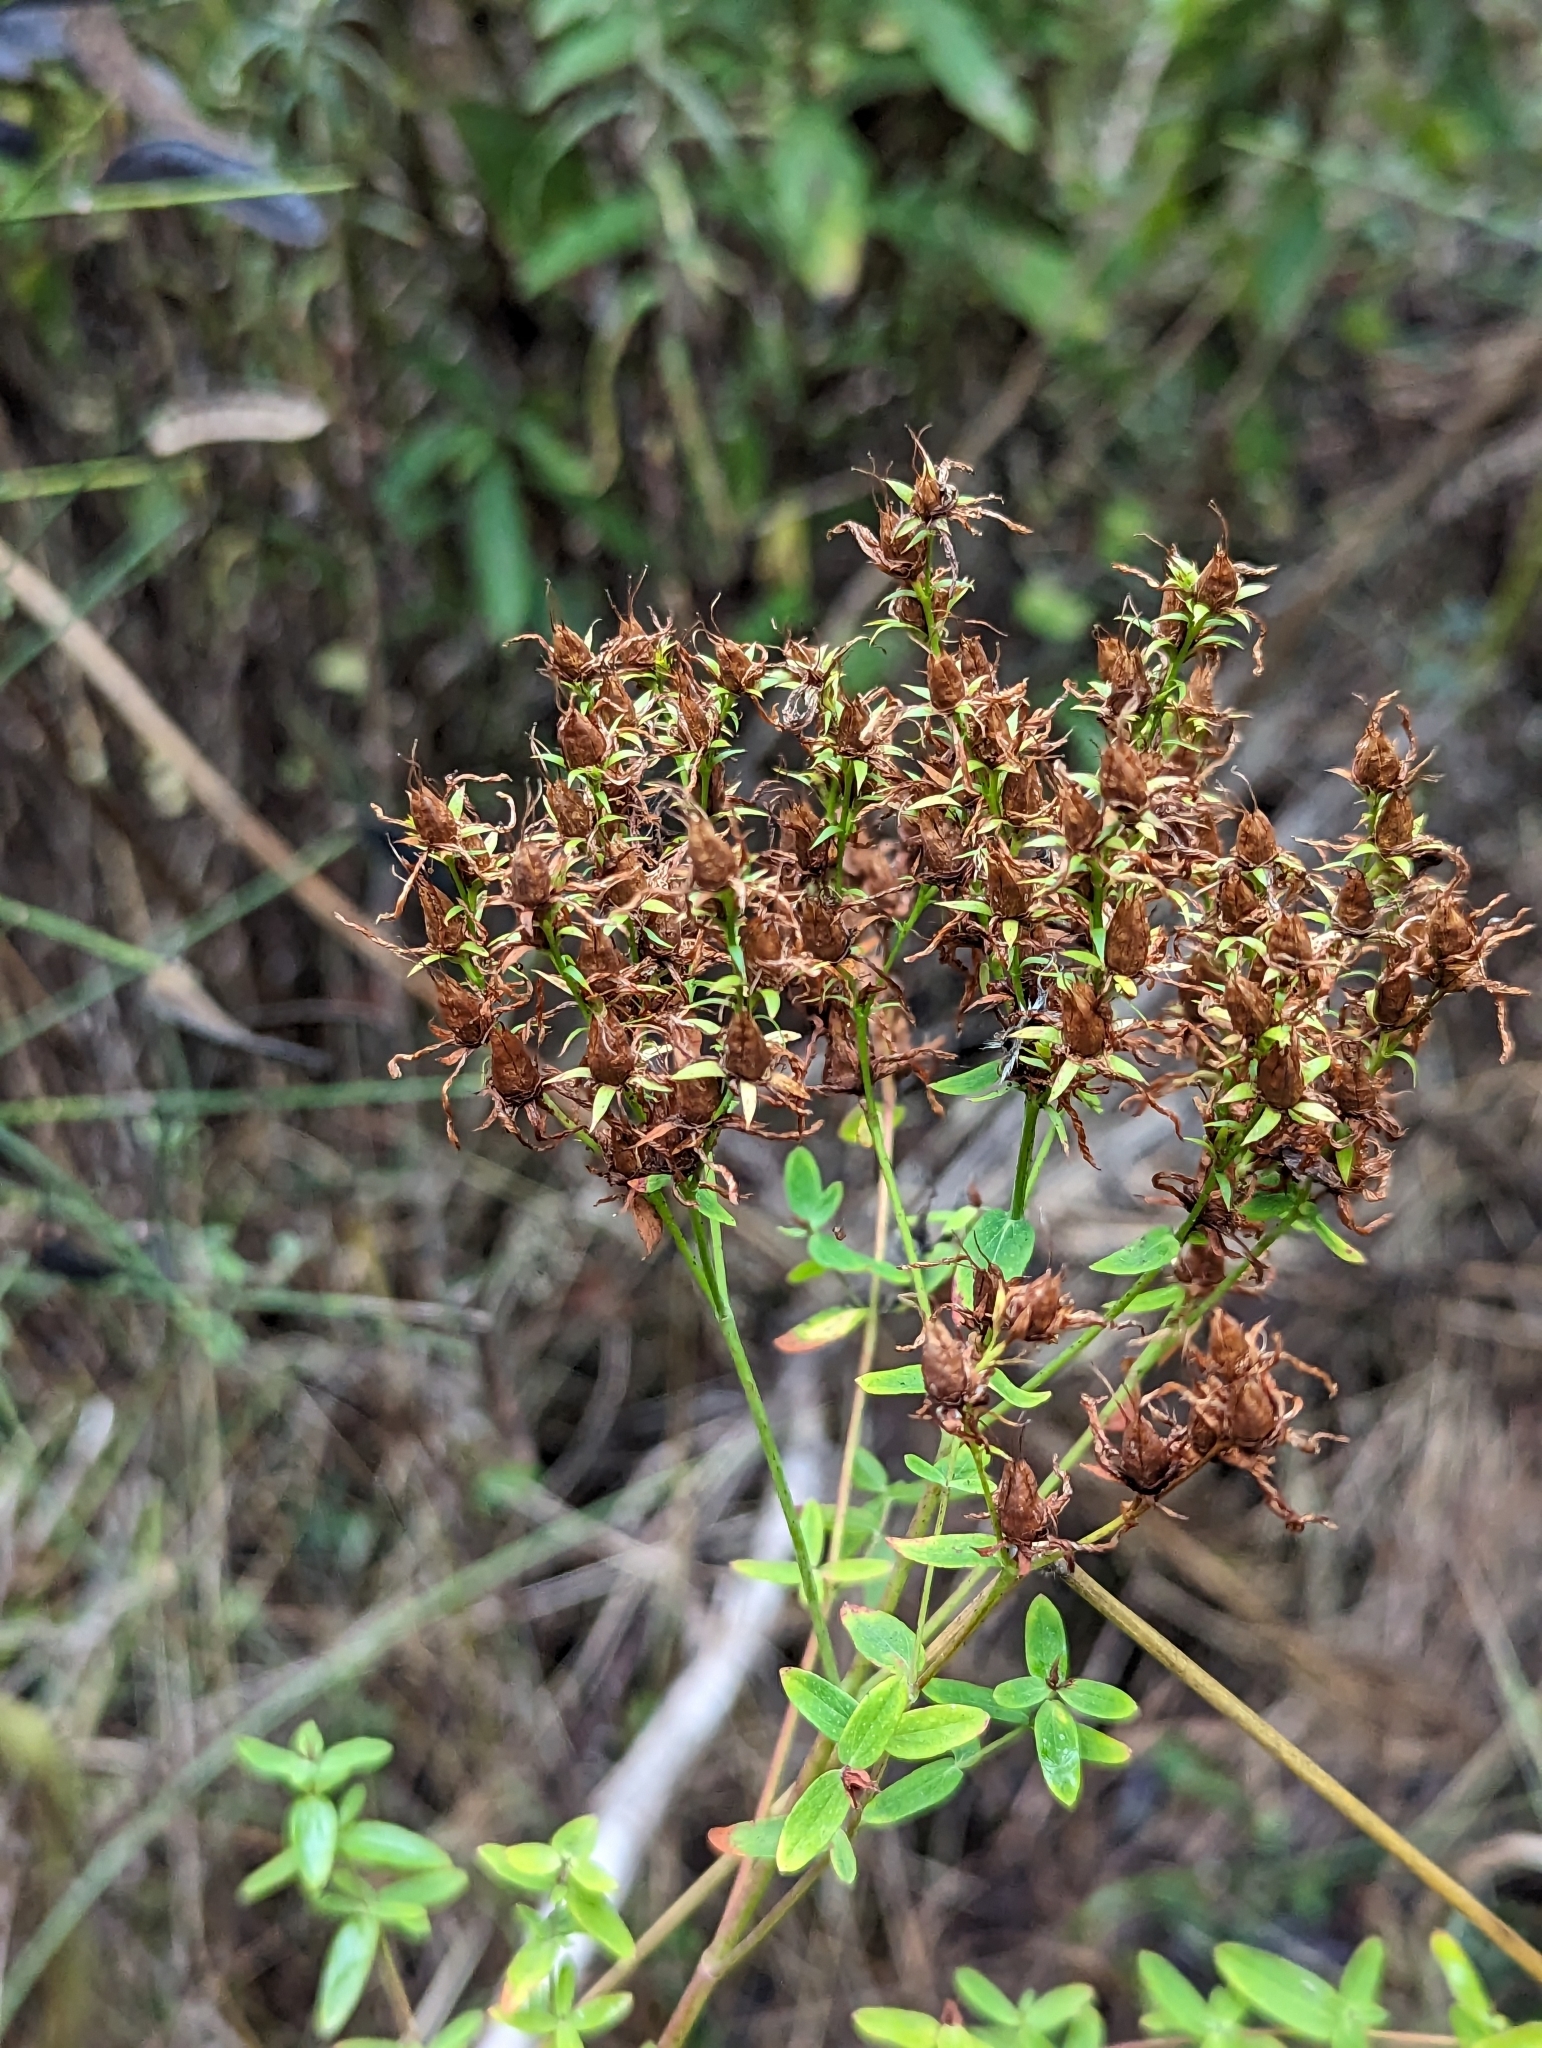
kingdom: Plantae
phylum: Tracheophyta
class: Magnoliopsida
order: Malpighiales
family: Hypericaceae
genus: Hypericum
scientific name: Hypericum perforatum
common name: Common st. johnswort
